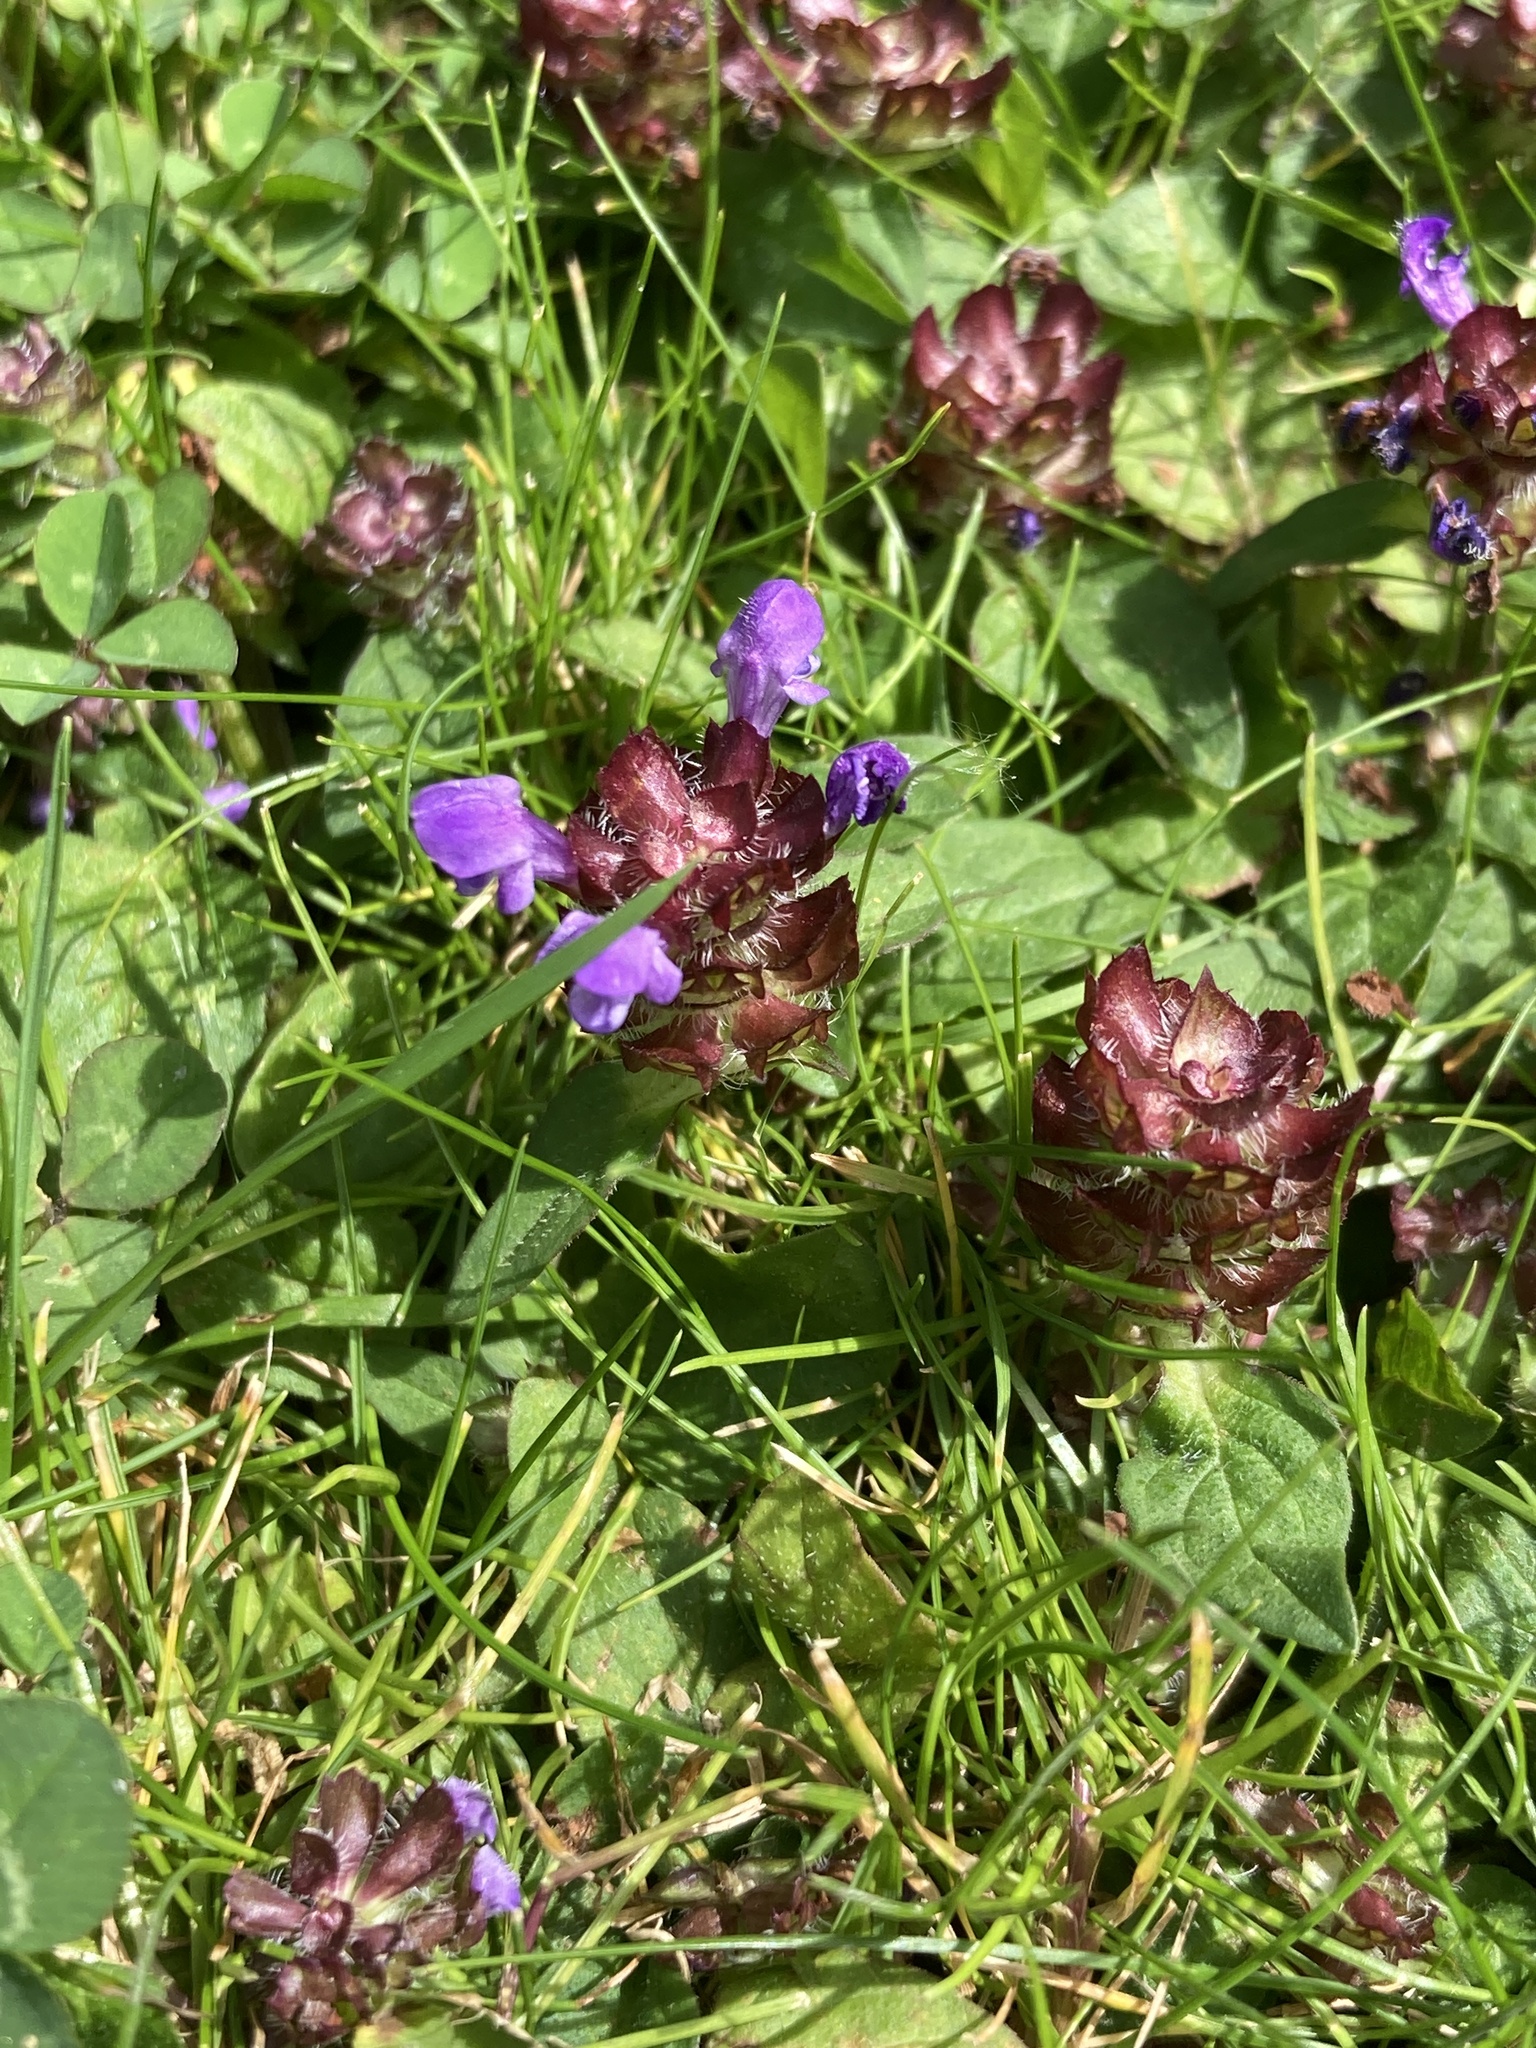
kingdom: Plantae
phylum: Tracheophyta
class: Magnoliopsida
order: Lamiales
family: Lamiaceae
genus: Prunella
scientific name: Prunella vulgaris
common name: Heal-all
